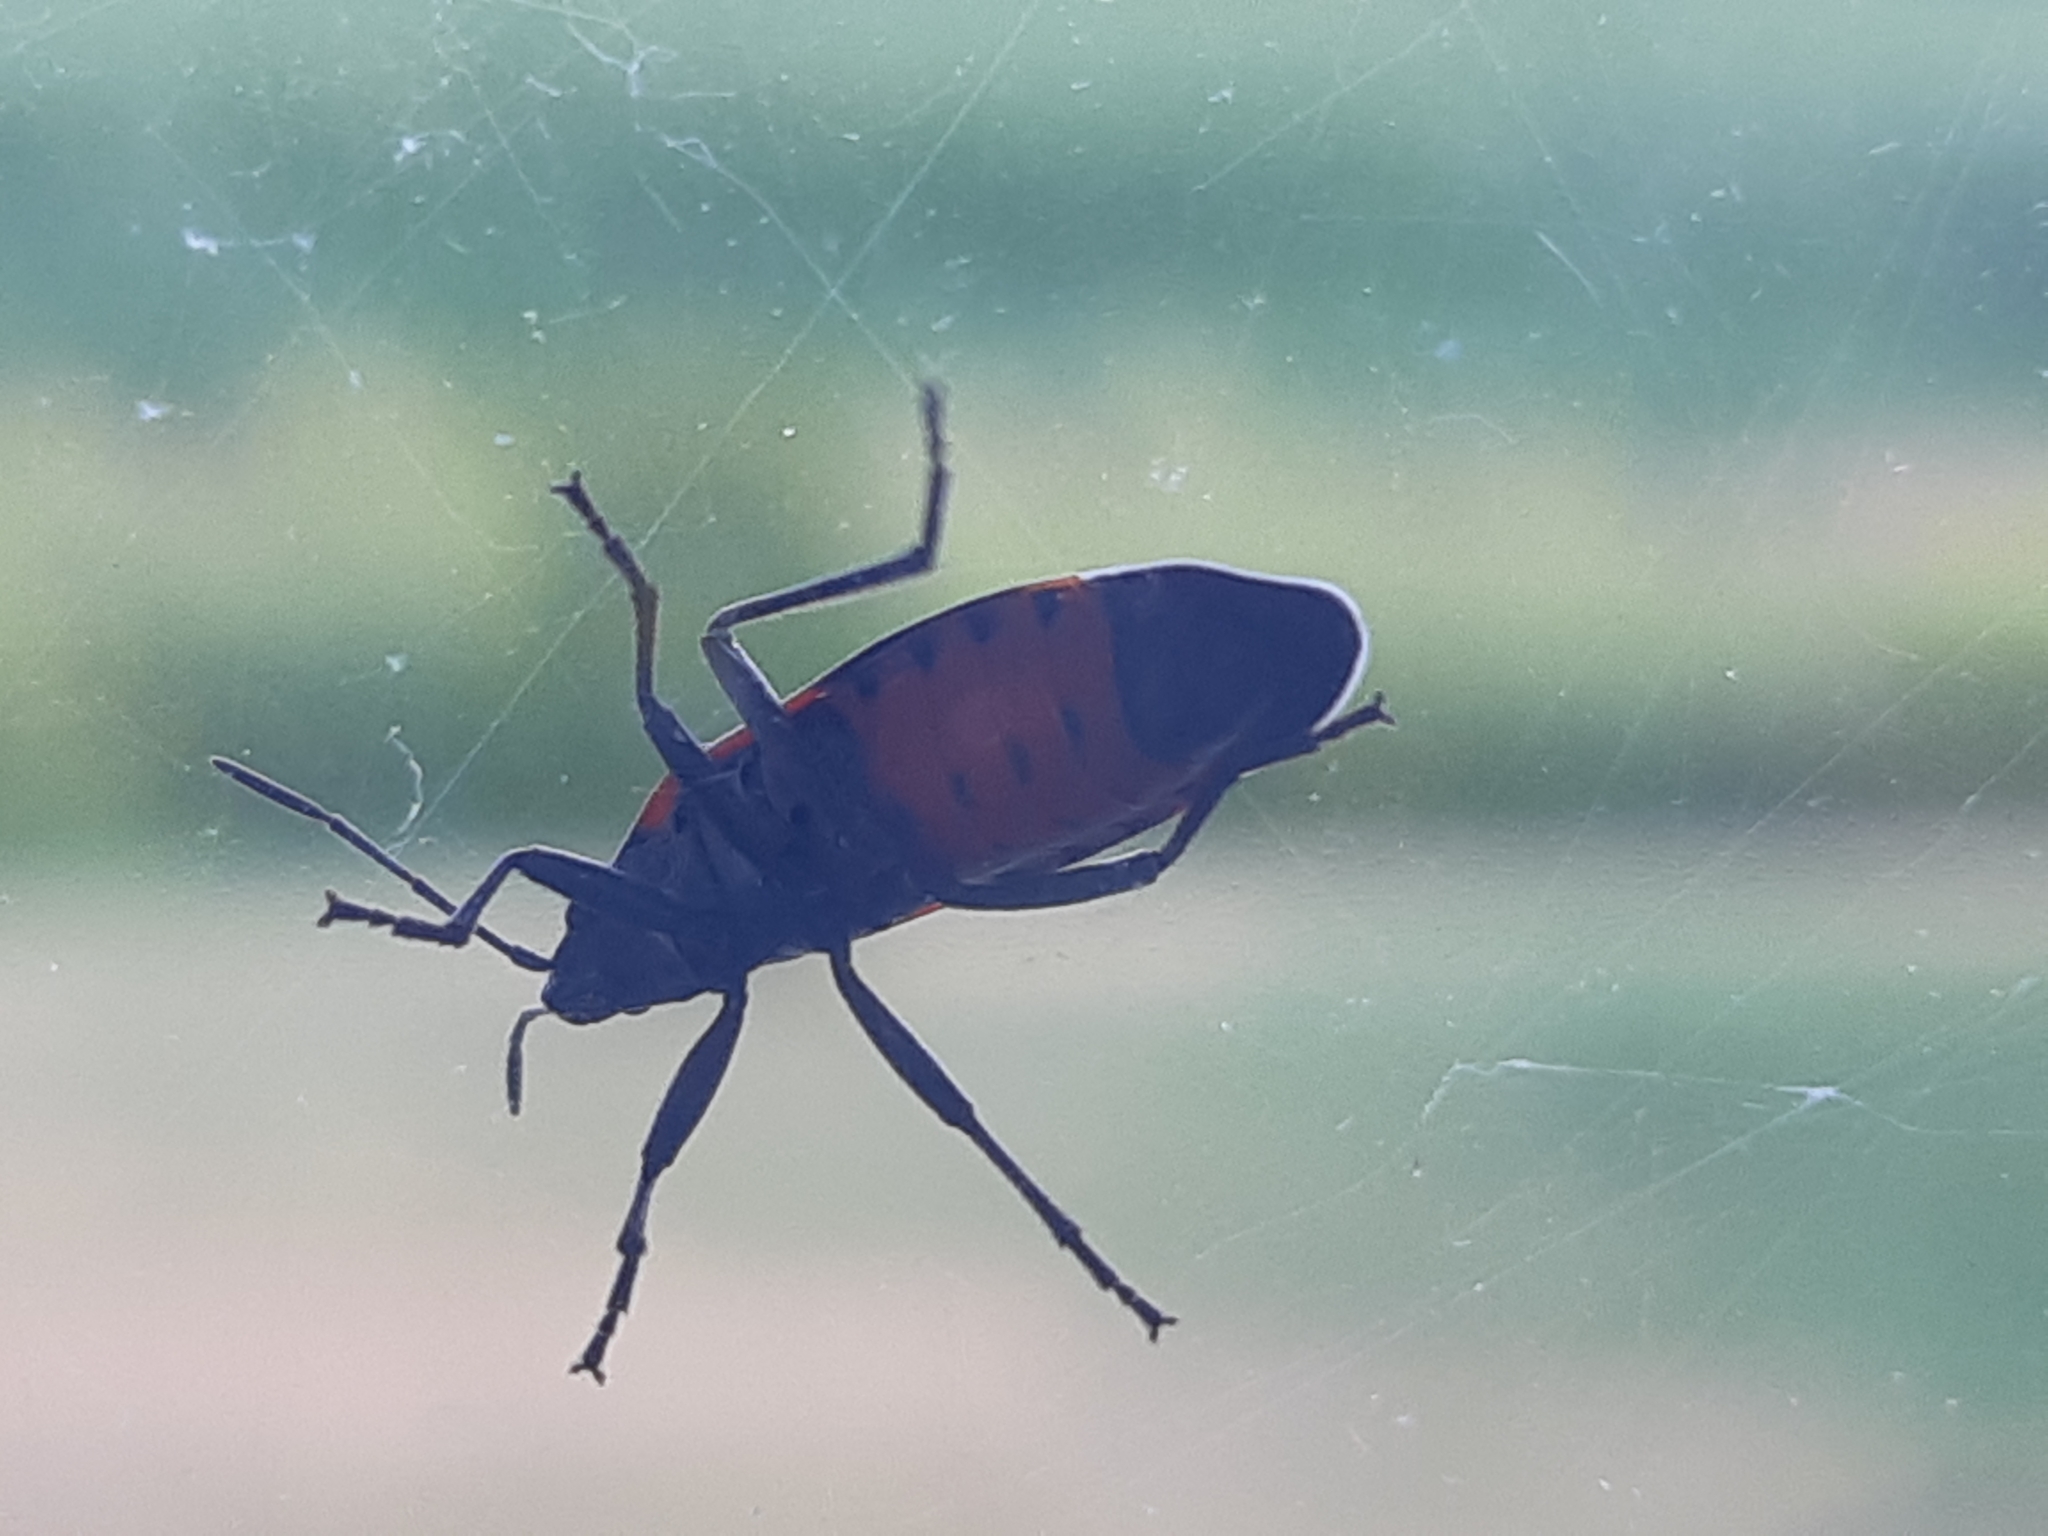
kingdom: Animalia
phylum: Arthropoda
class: Insecta
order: Hemiptera
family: Lygaeidae
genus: Lygaeus
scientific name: Lygaeus kalmii
